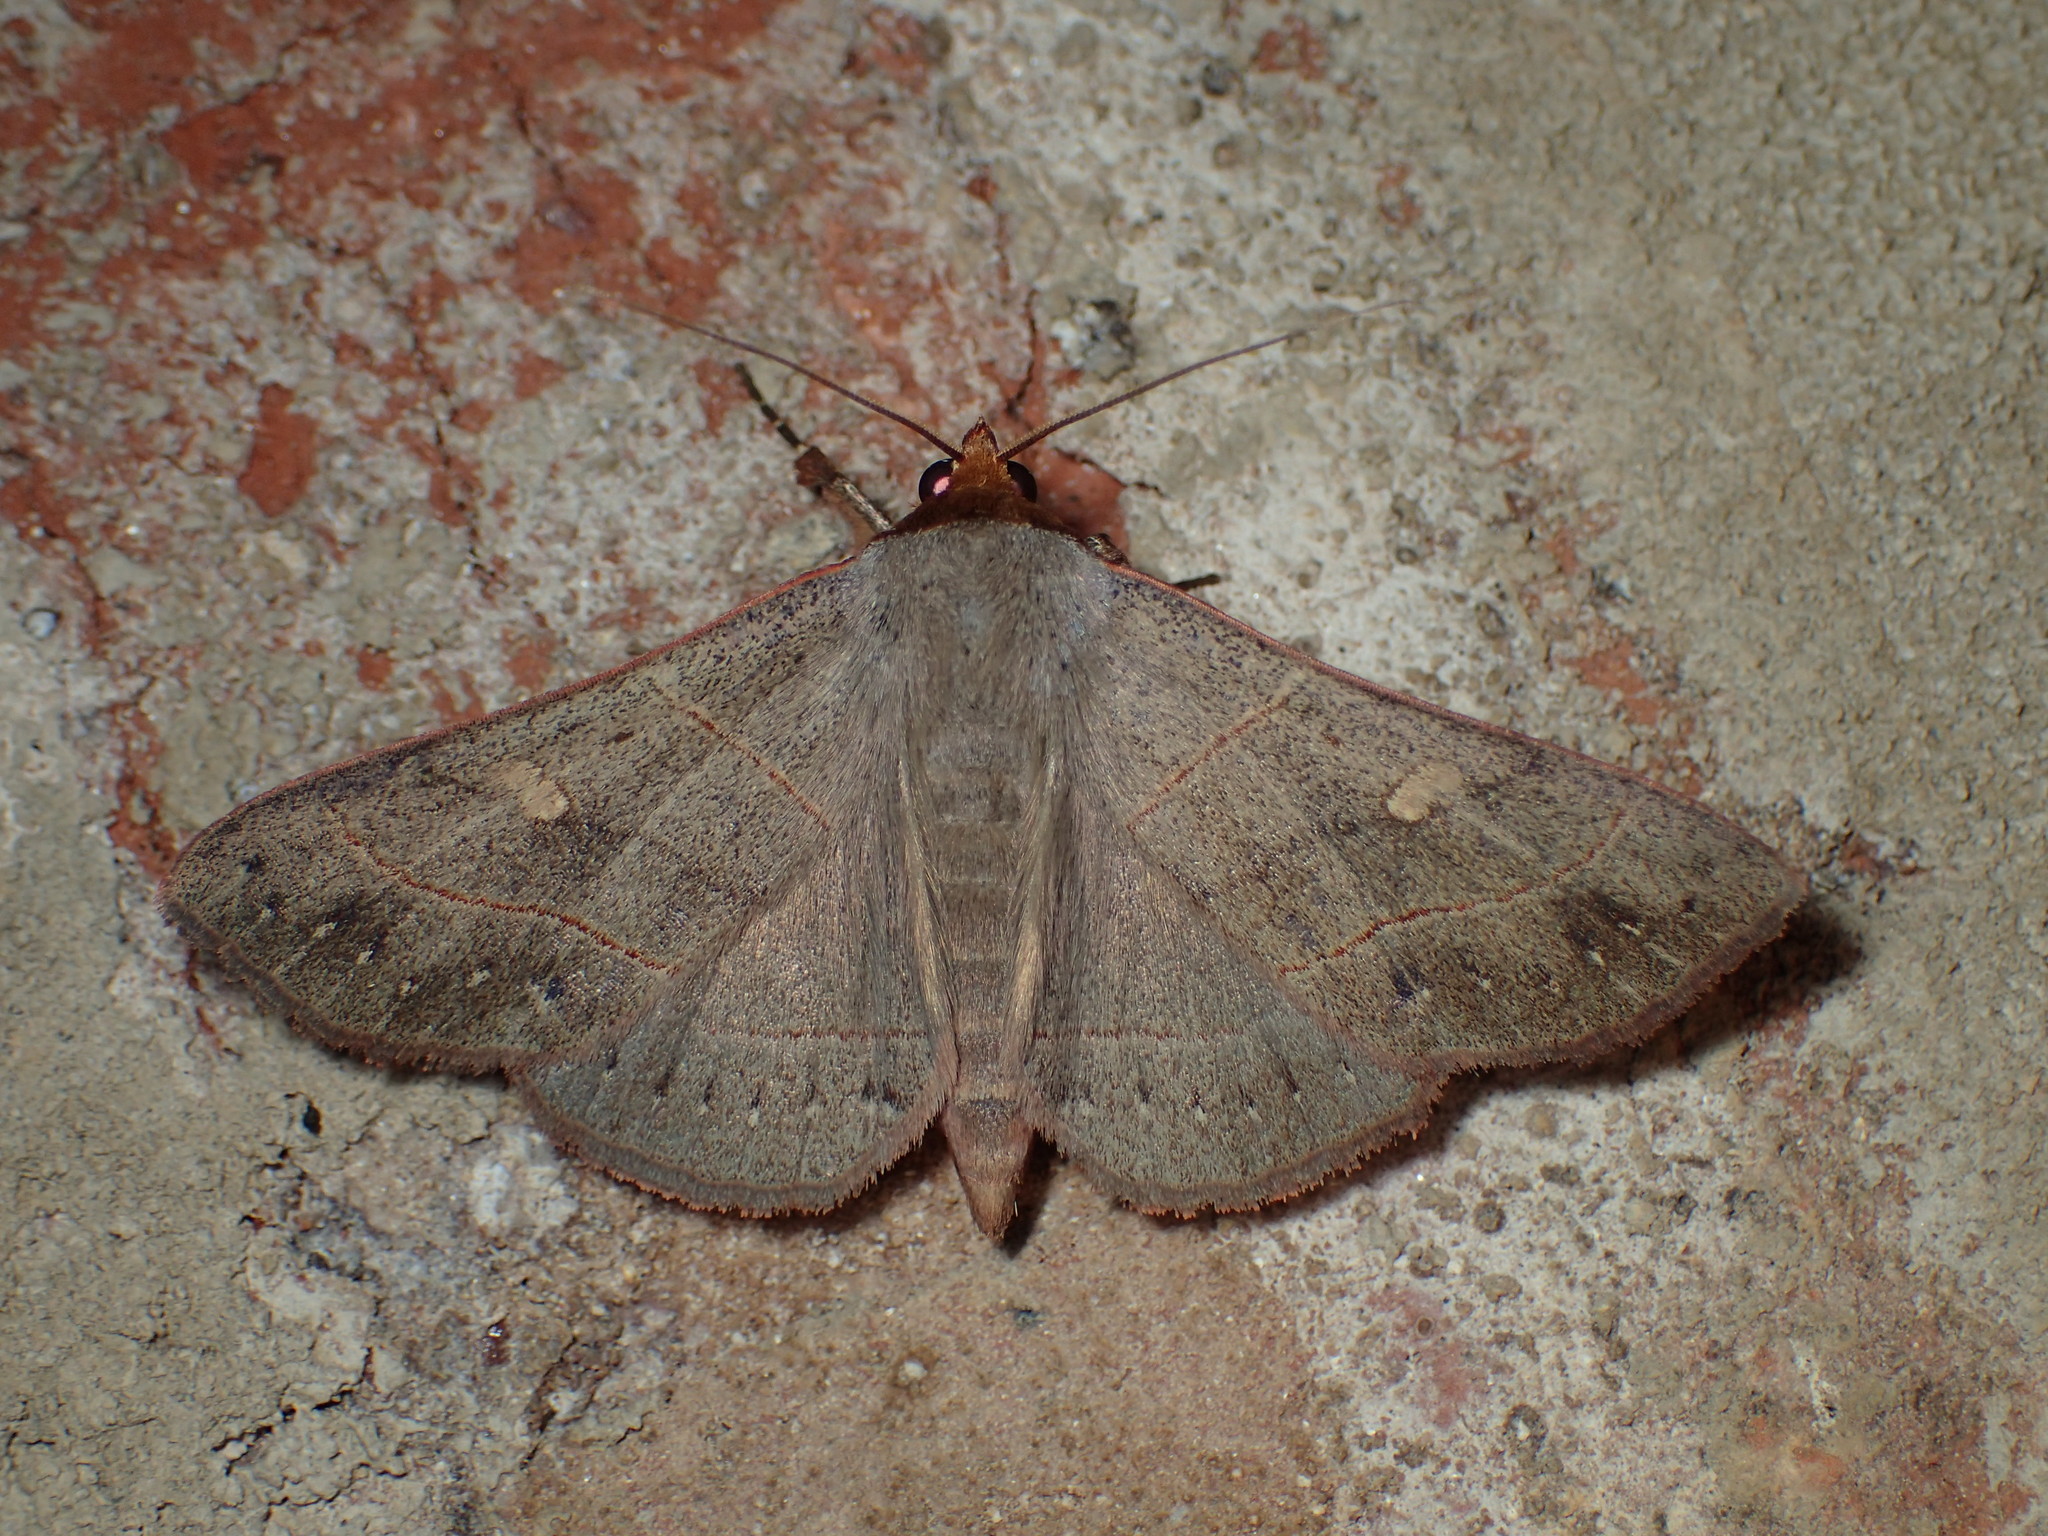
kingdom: Animalia
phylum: Arthropoda
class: Insecta
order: Lepidoptera
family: Erebidae
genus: Panopoda
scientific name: Panopoda rufimargo
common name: Red-lined panopoda moth
